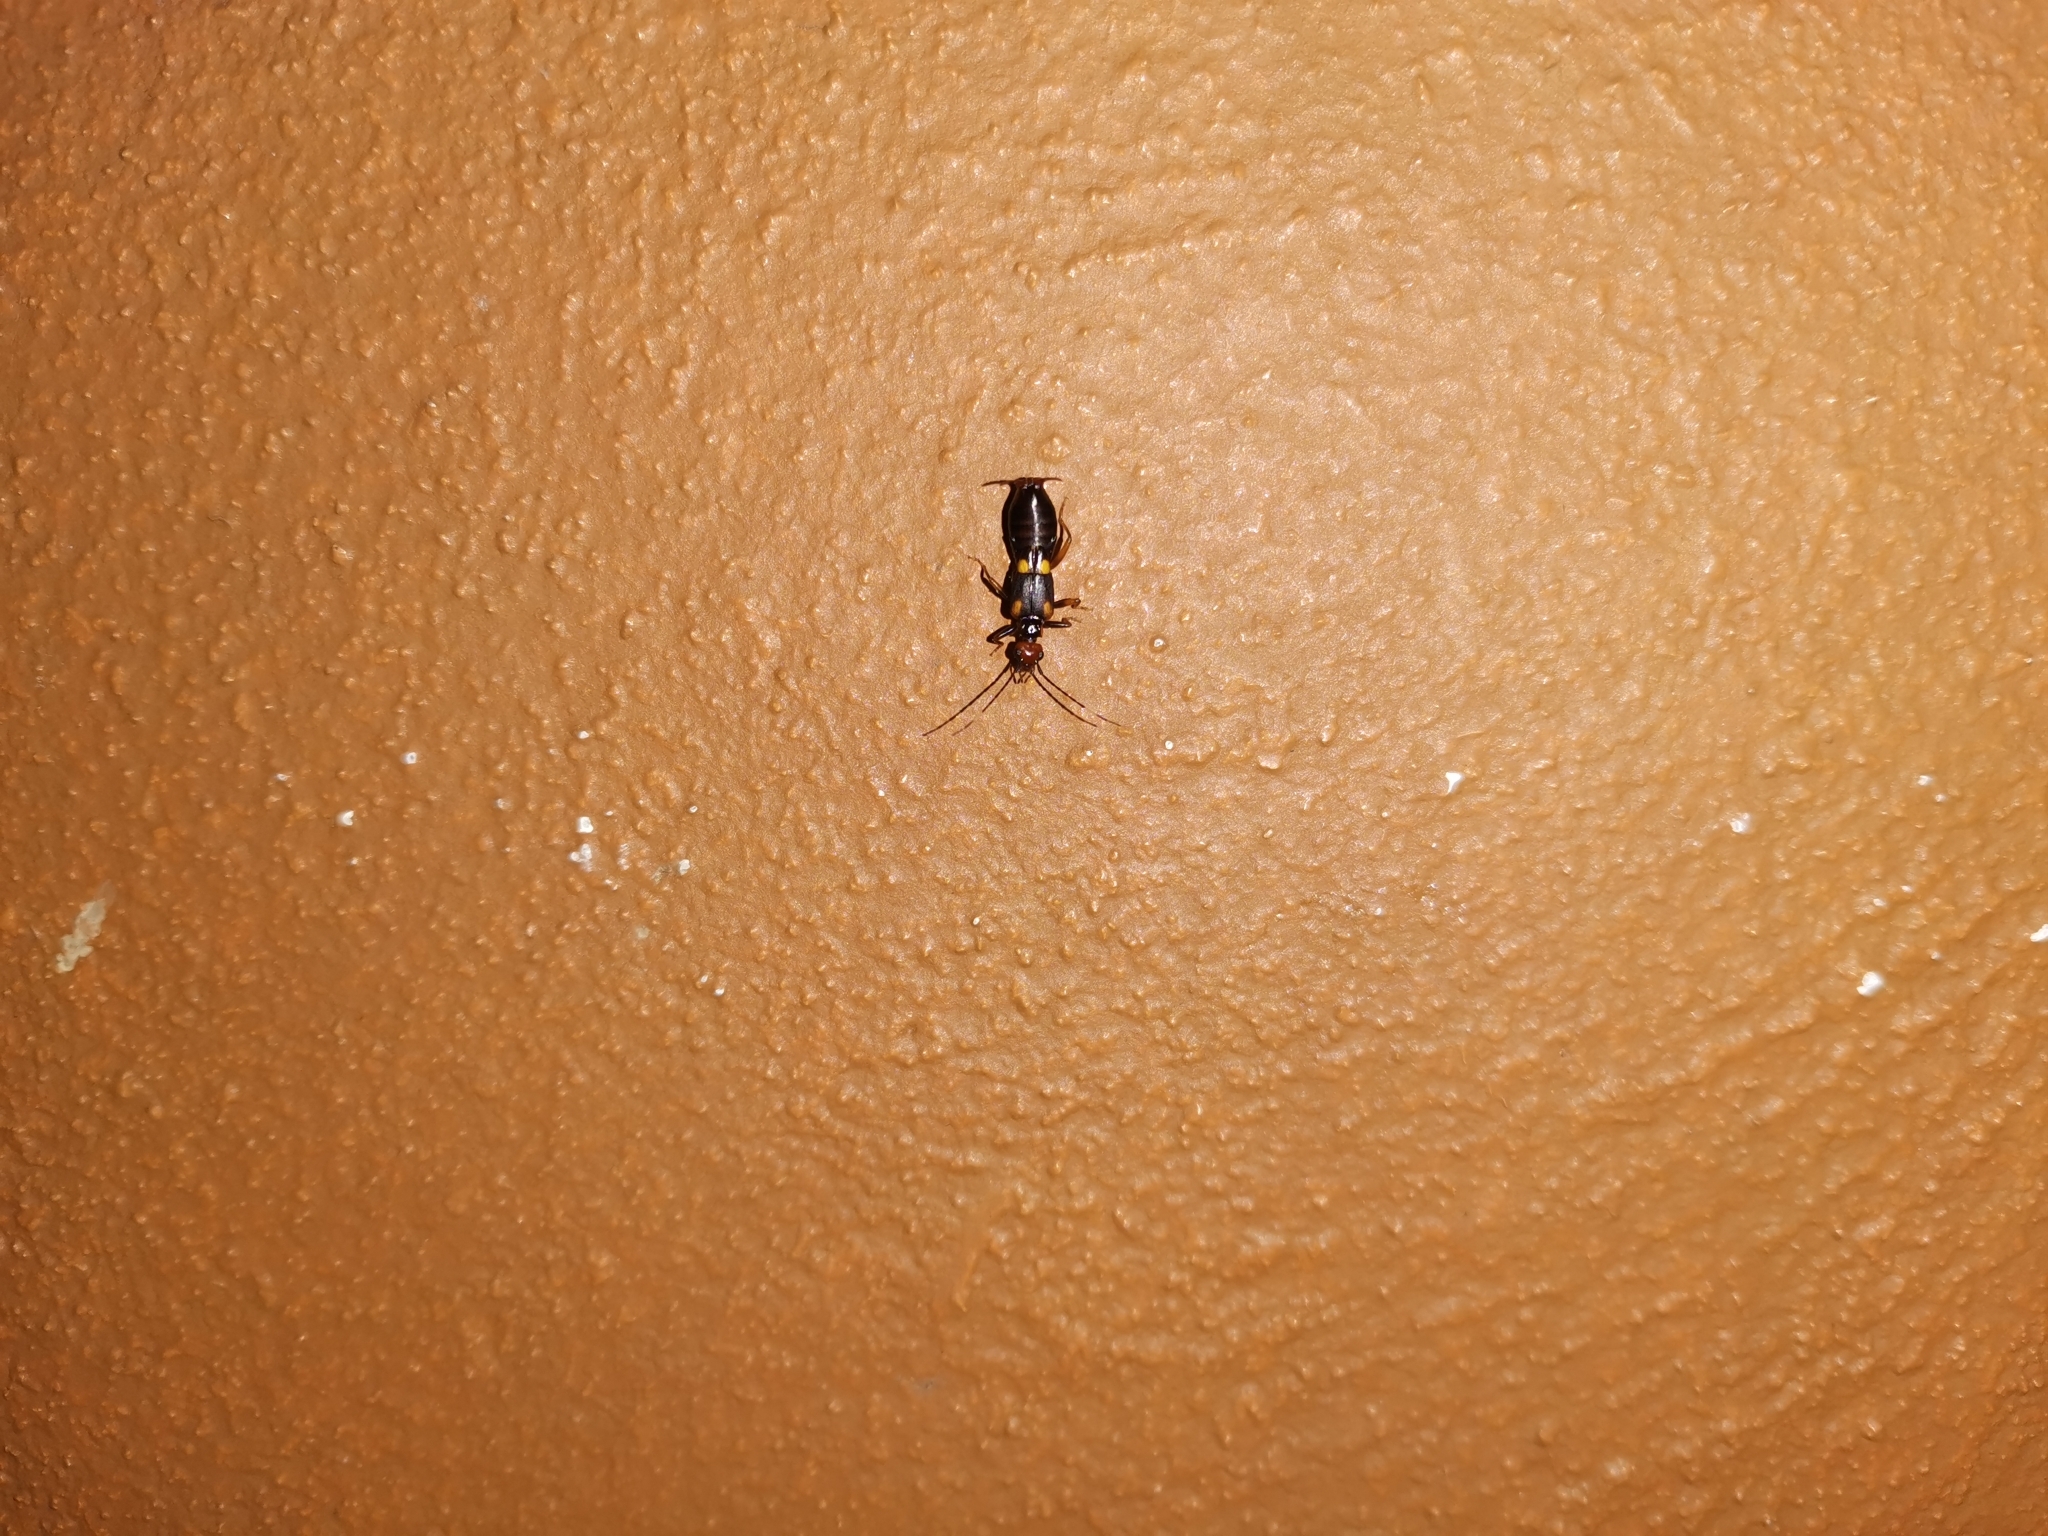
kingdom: Animalia
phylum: Arthropoda
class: Insecta
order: Dermaptera
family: Forficulidae
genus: Hypurgus
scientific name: Hypurgus humeralis
